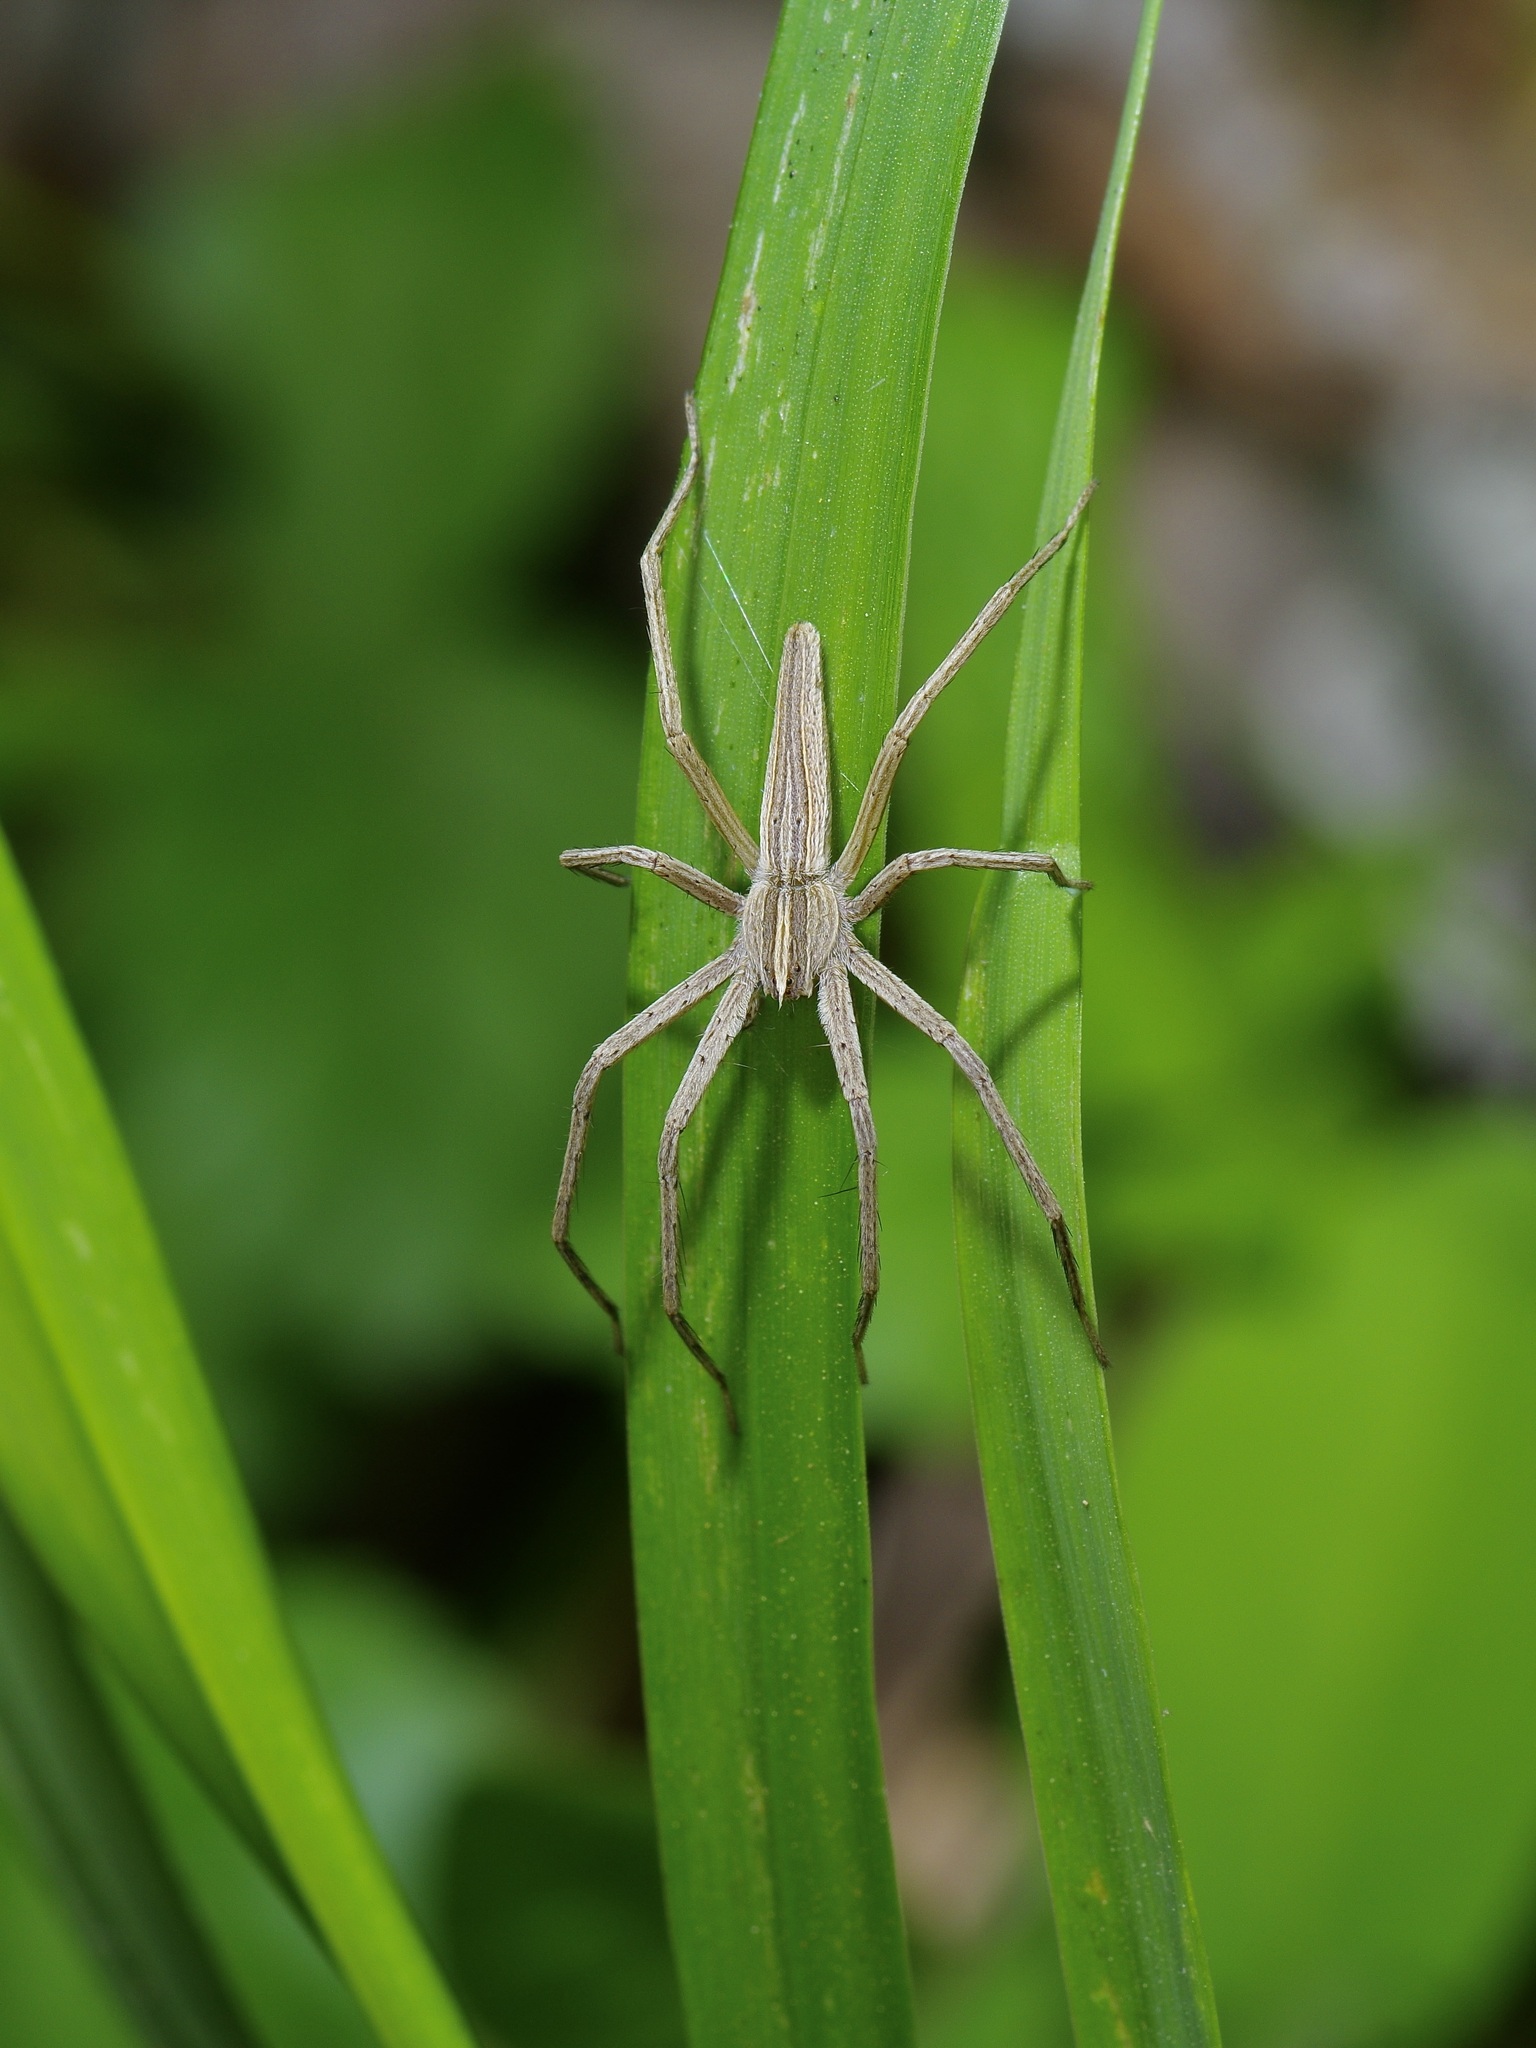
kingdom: Animalia
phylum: Arthropoda
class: Arachnida
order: Araneae
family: Pisauridae
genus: Pisaurina
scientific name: Pisaurina dubia
